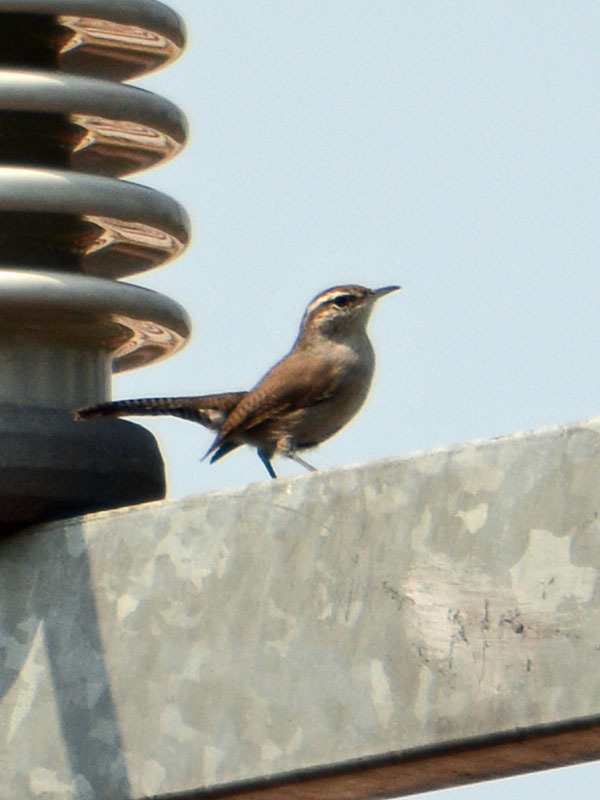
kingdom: Animalia
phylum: Chordata
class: Aves
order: Passeriformes
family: Troglodytidae
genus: Thryomanes
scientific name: Thryomanes bewickii
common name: Bewick's wren
